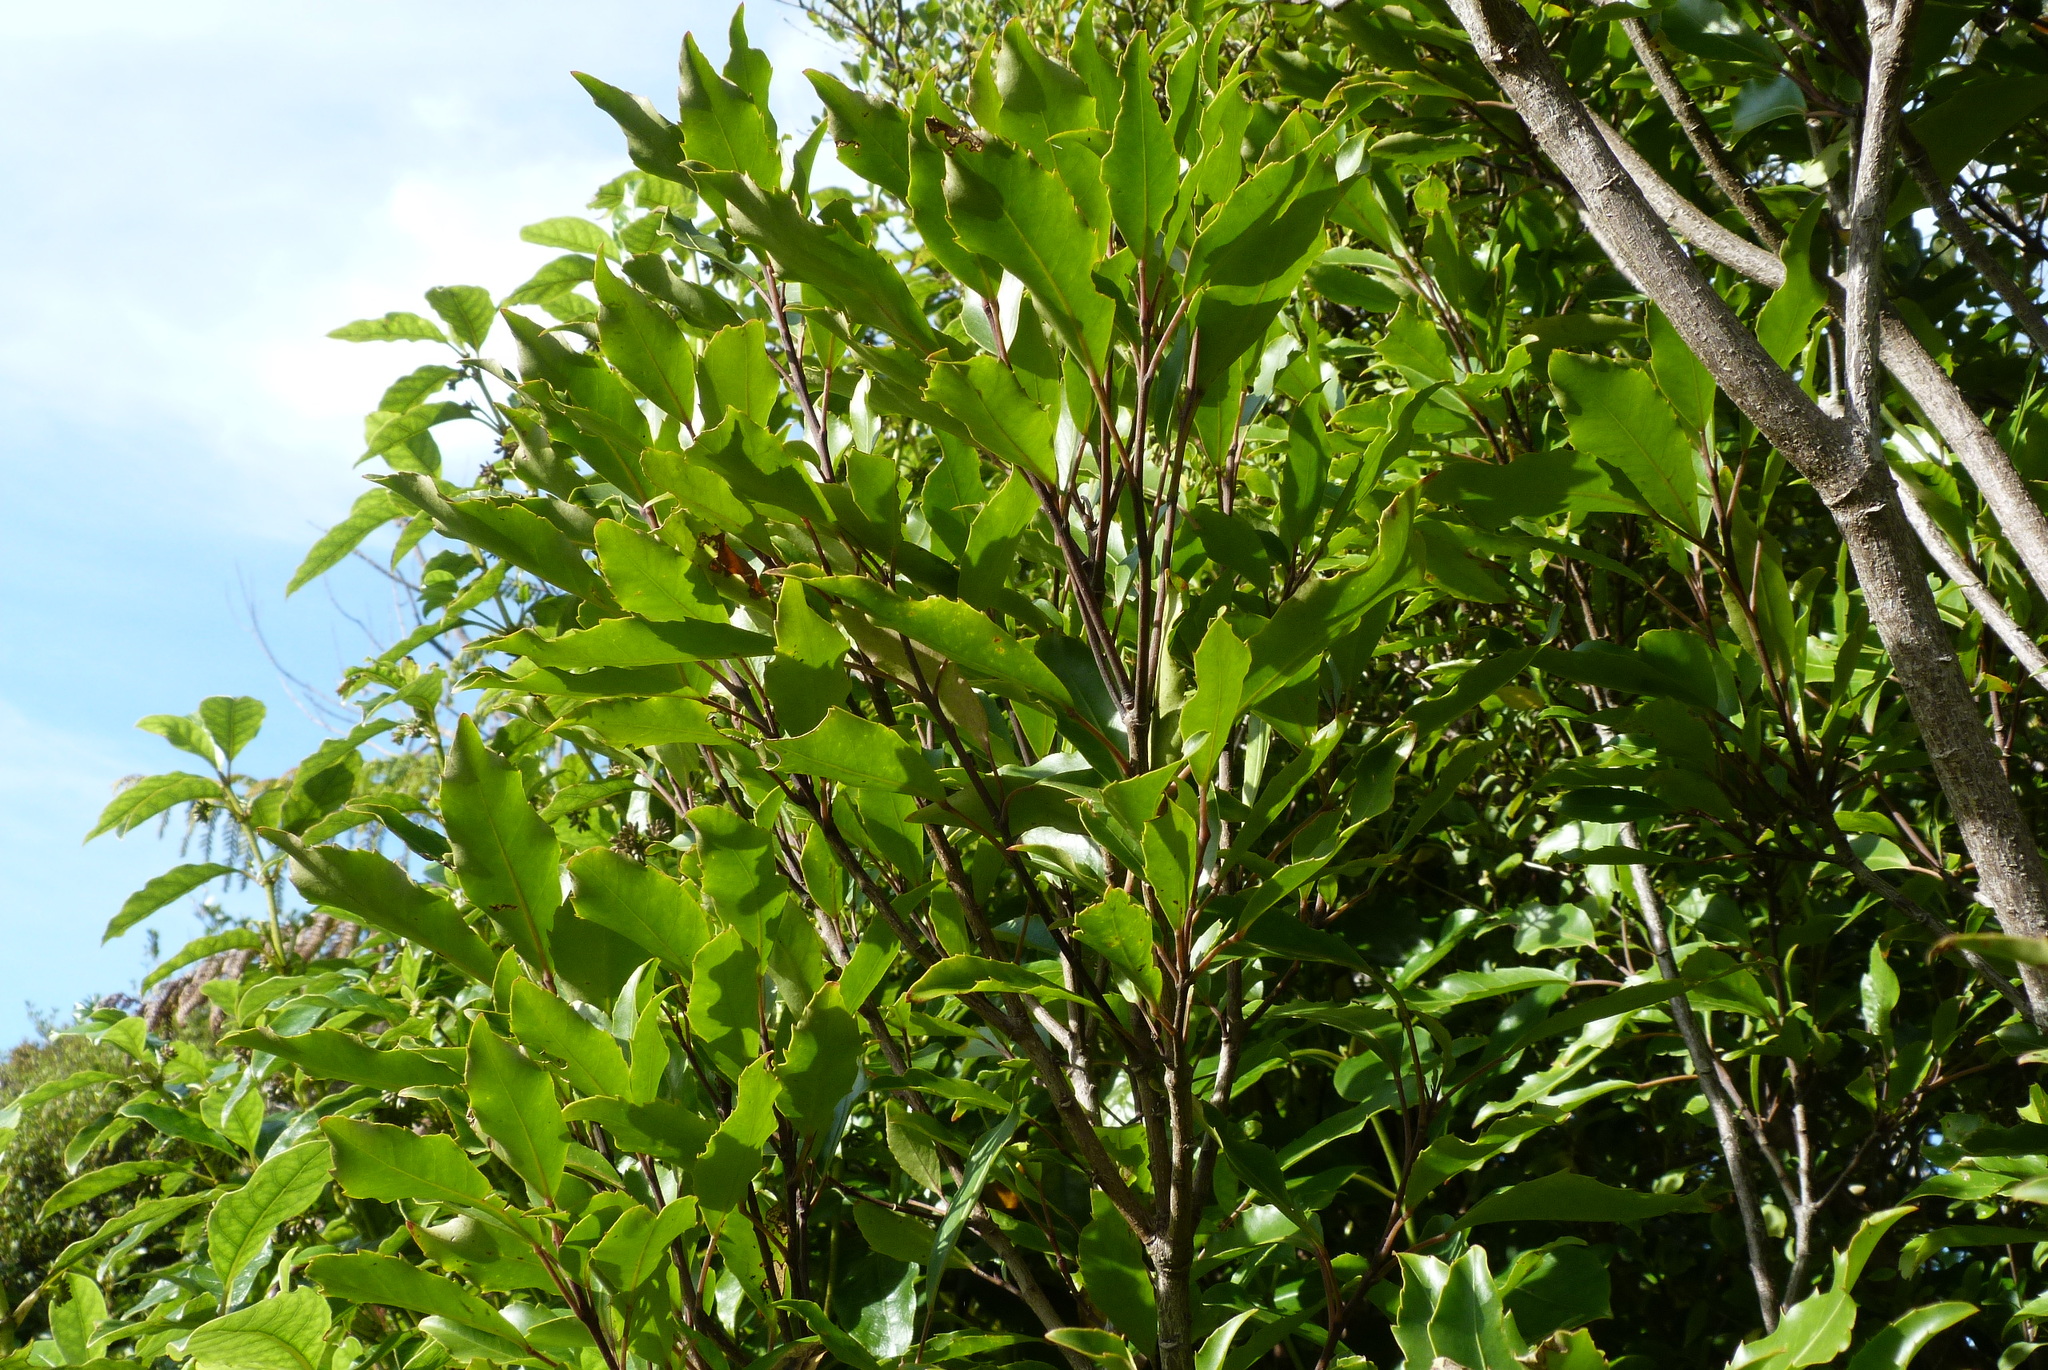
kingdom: Plantae
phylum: Tracheophyta
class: Magnoliopsida
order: Apiales
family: Araliaceae
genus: Raukaua
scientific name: Raukaua simplex
